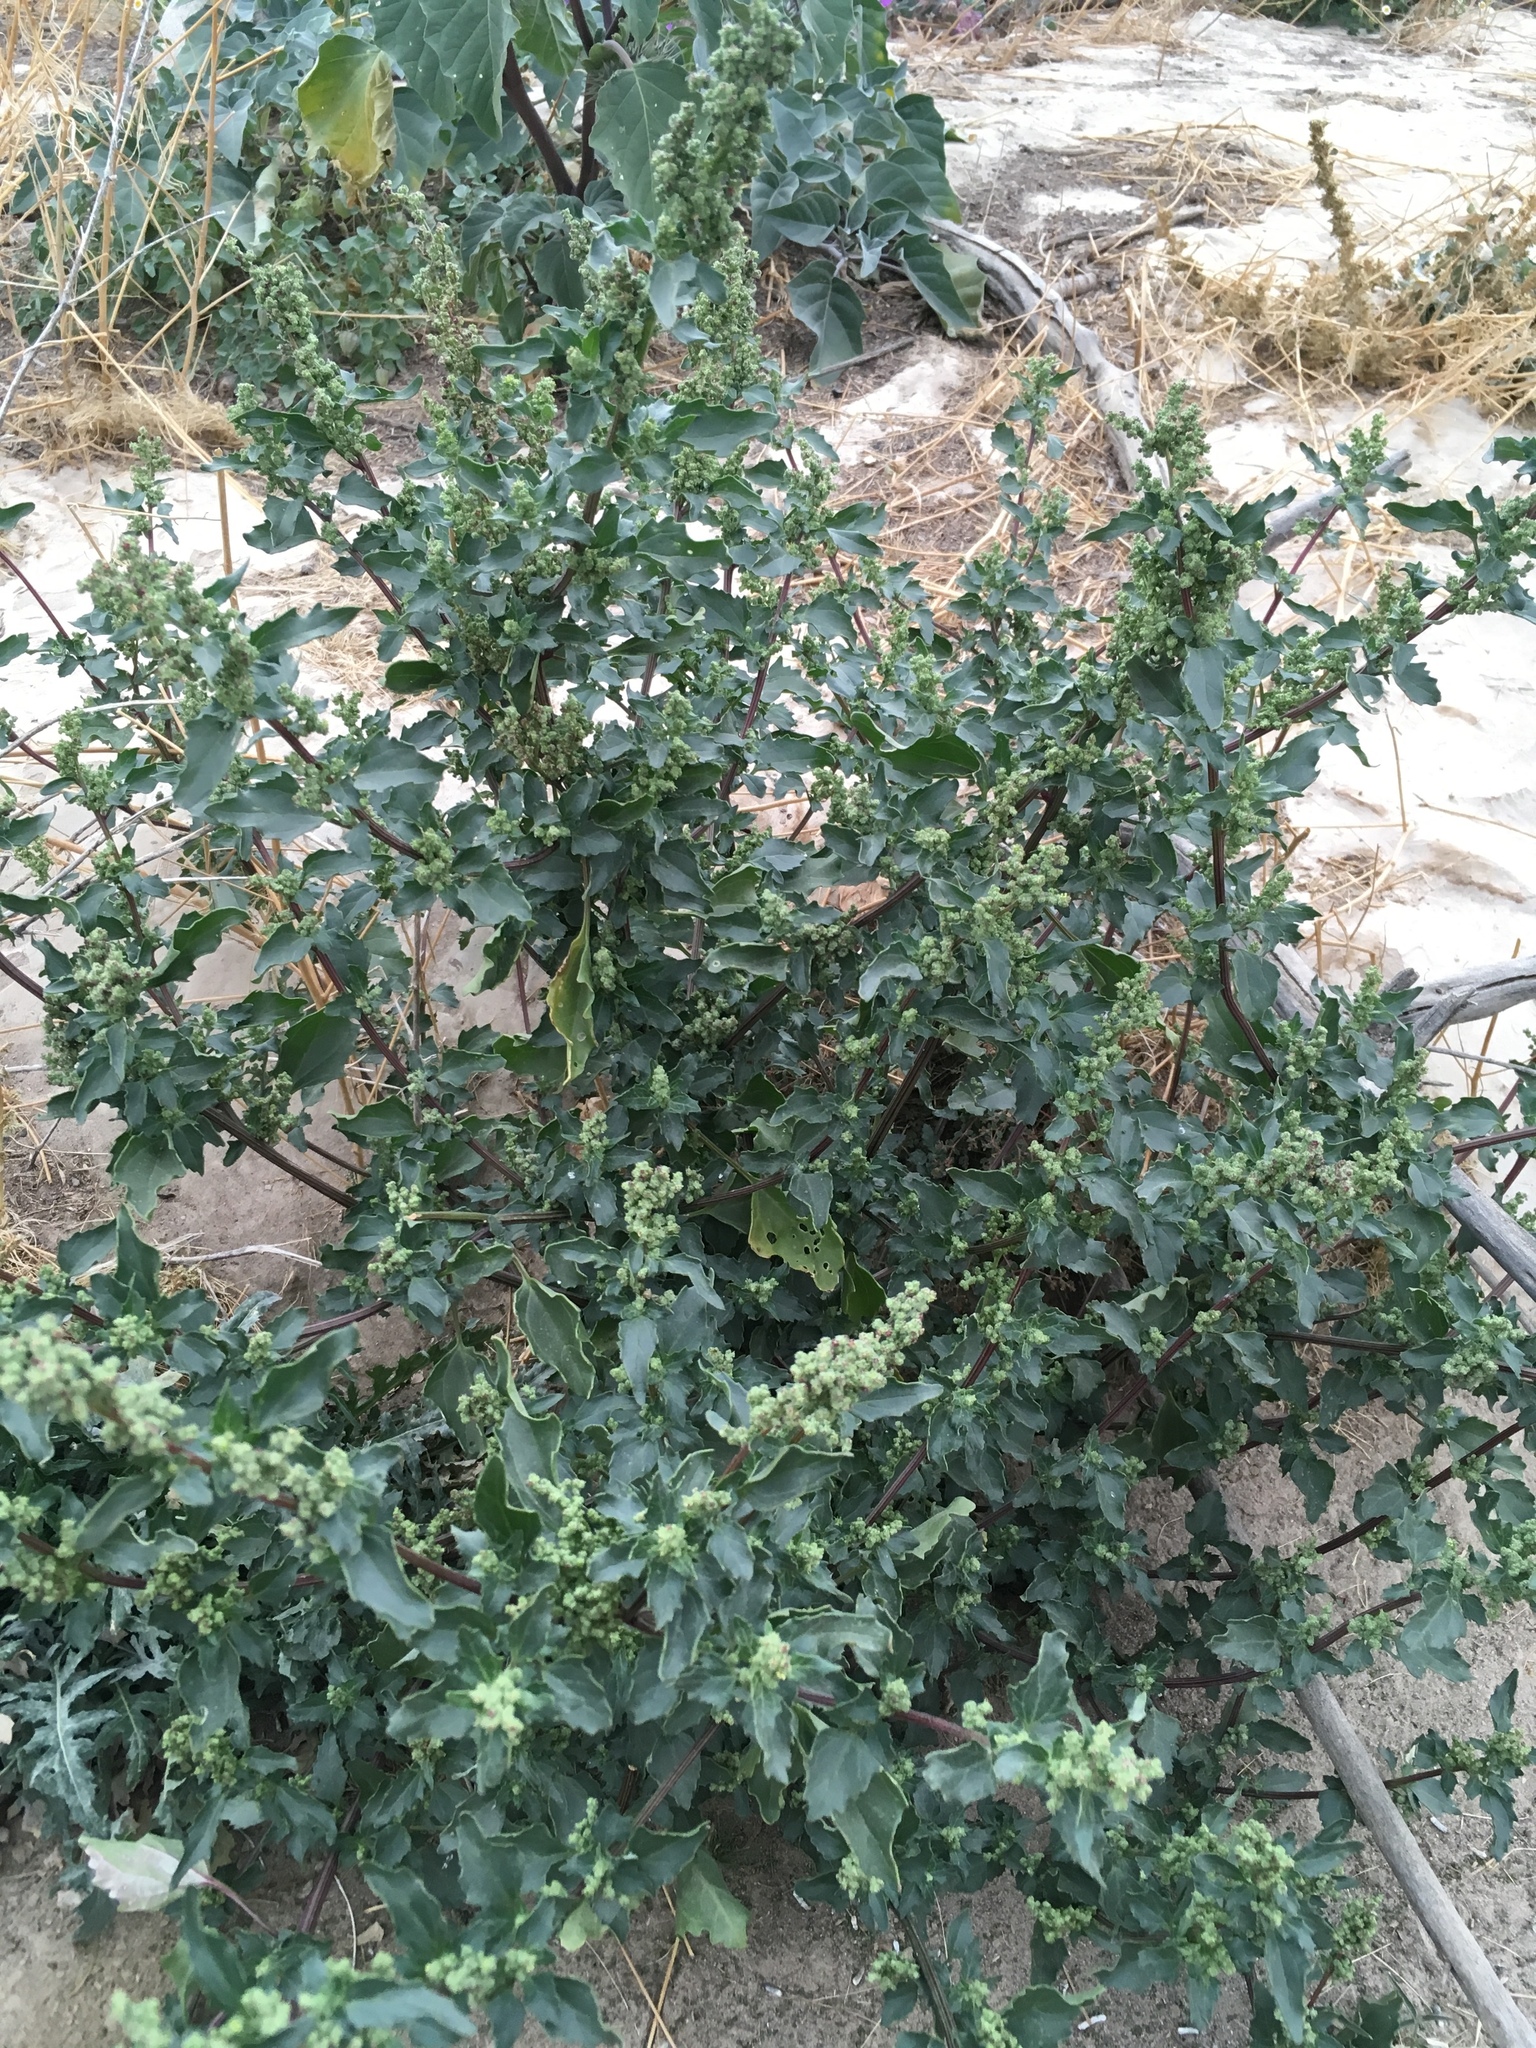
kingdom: Plantae
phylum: Tracheophyta
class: Magnoliopsida
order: Caryophyllales
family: Amaranthaceae
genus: Chenopodiastrum
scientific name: Chenopodiastrum murale
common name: Sowbane
